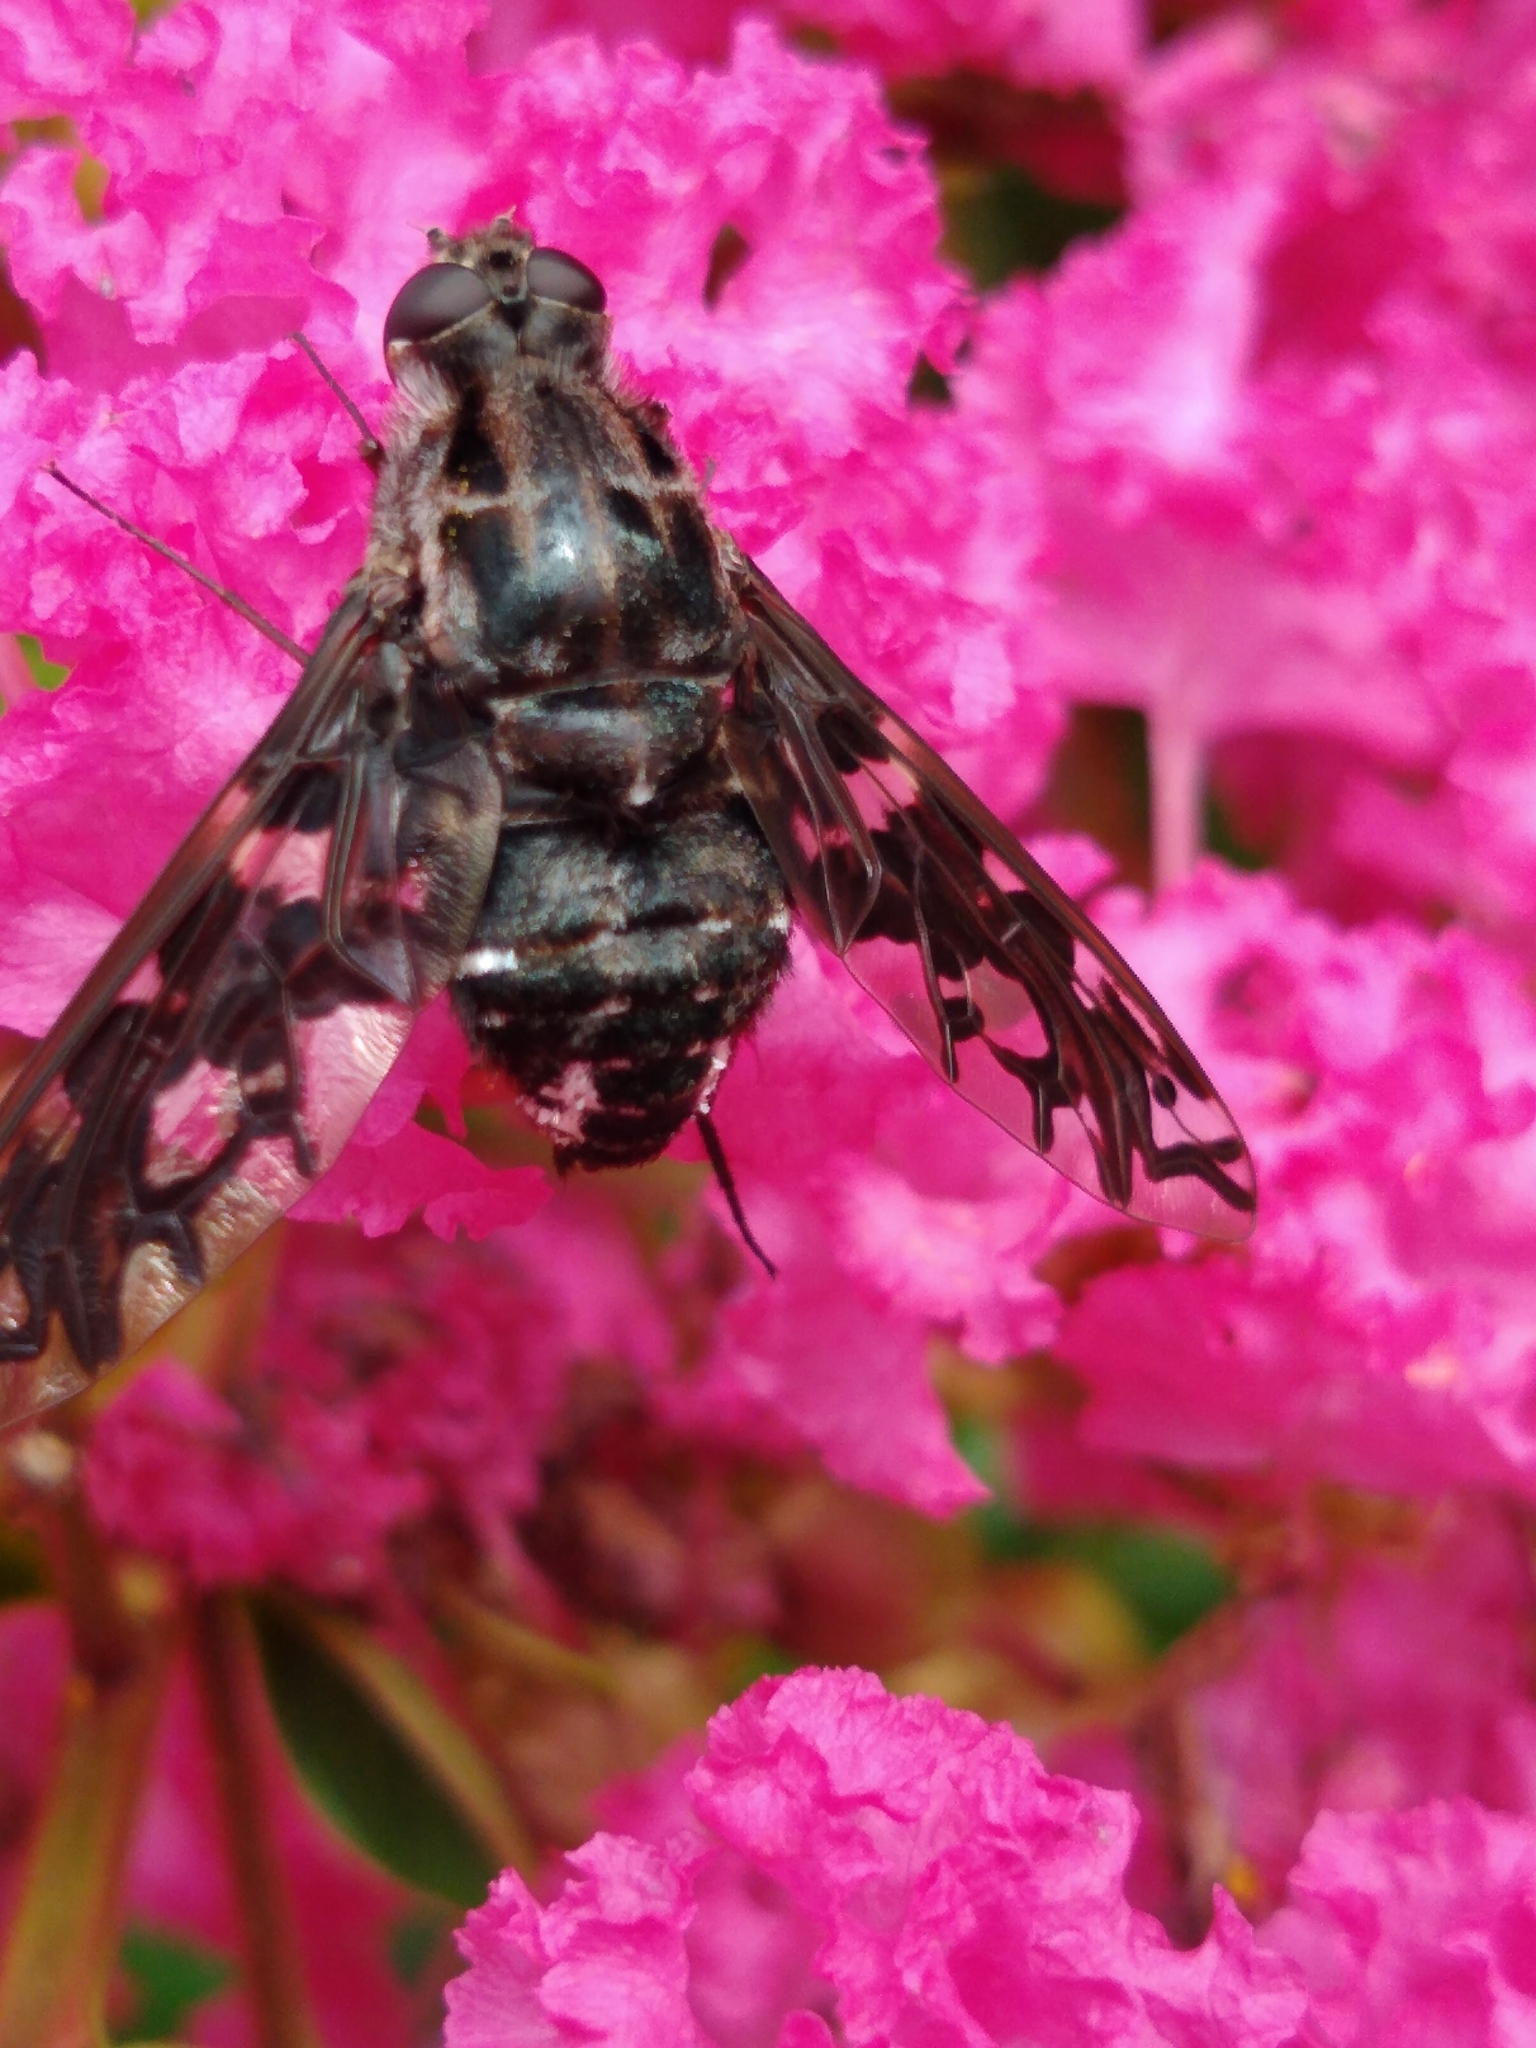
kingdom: Animalia
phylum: Arthropoda
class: Insecta
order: Diptera
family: Bombyliidae
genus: Xenox
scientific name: Xenox tigrinus
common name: Tiger bee fly
